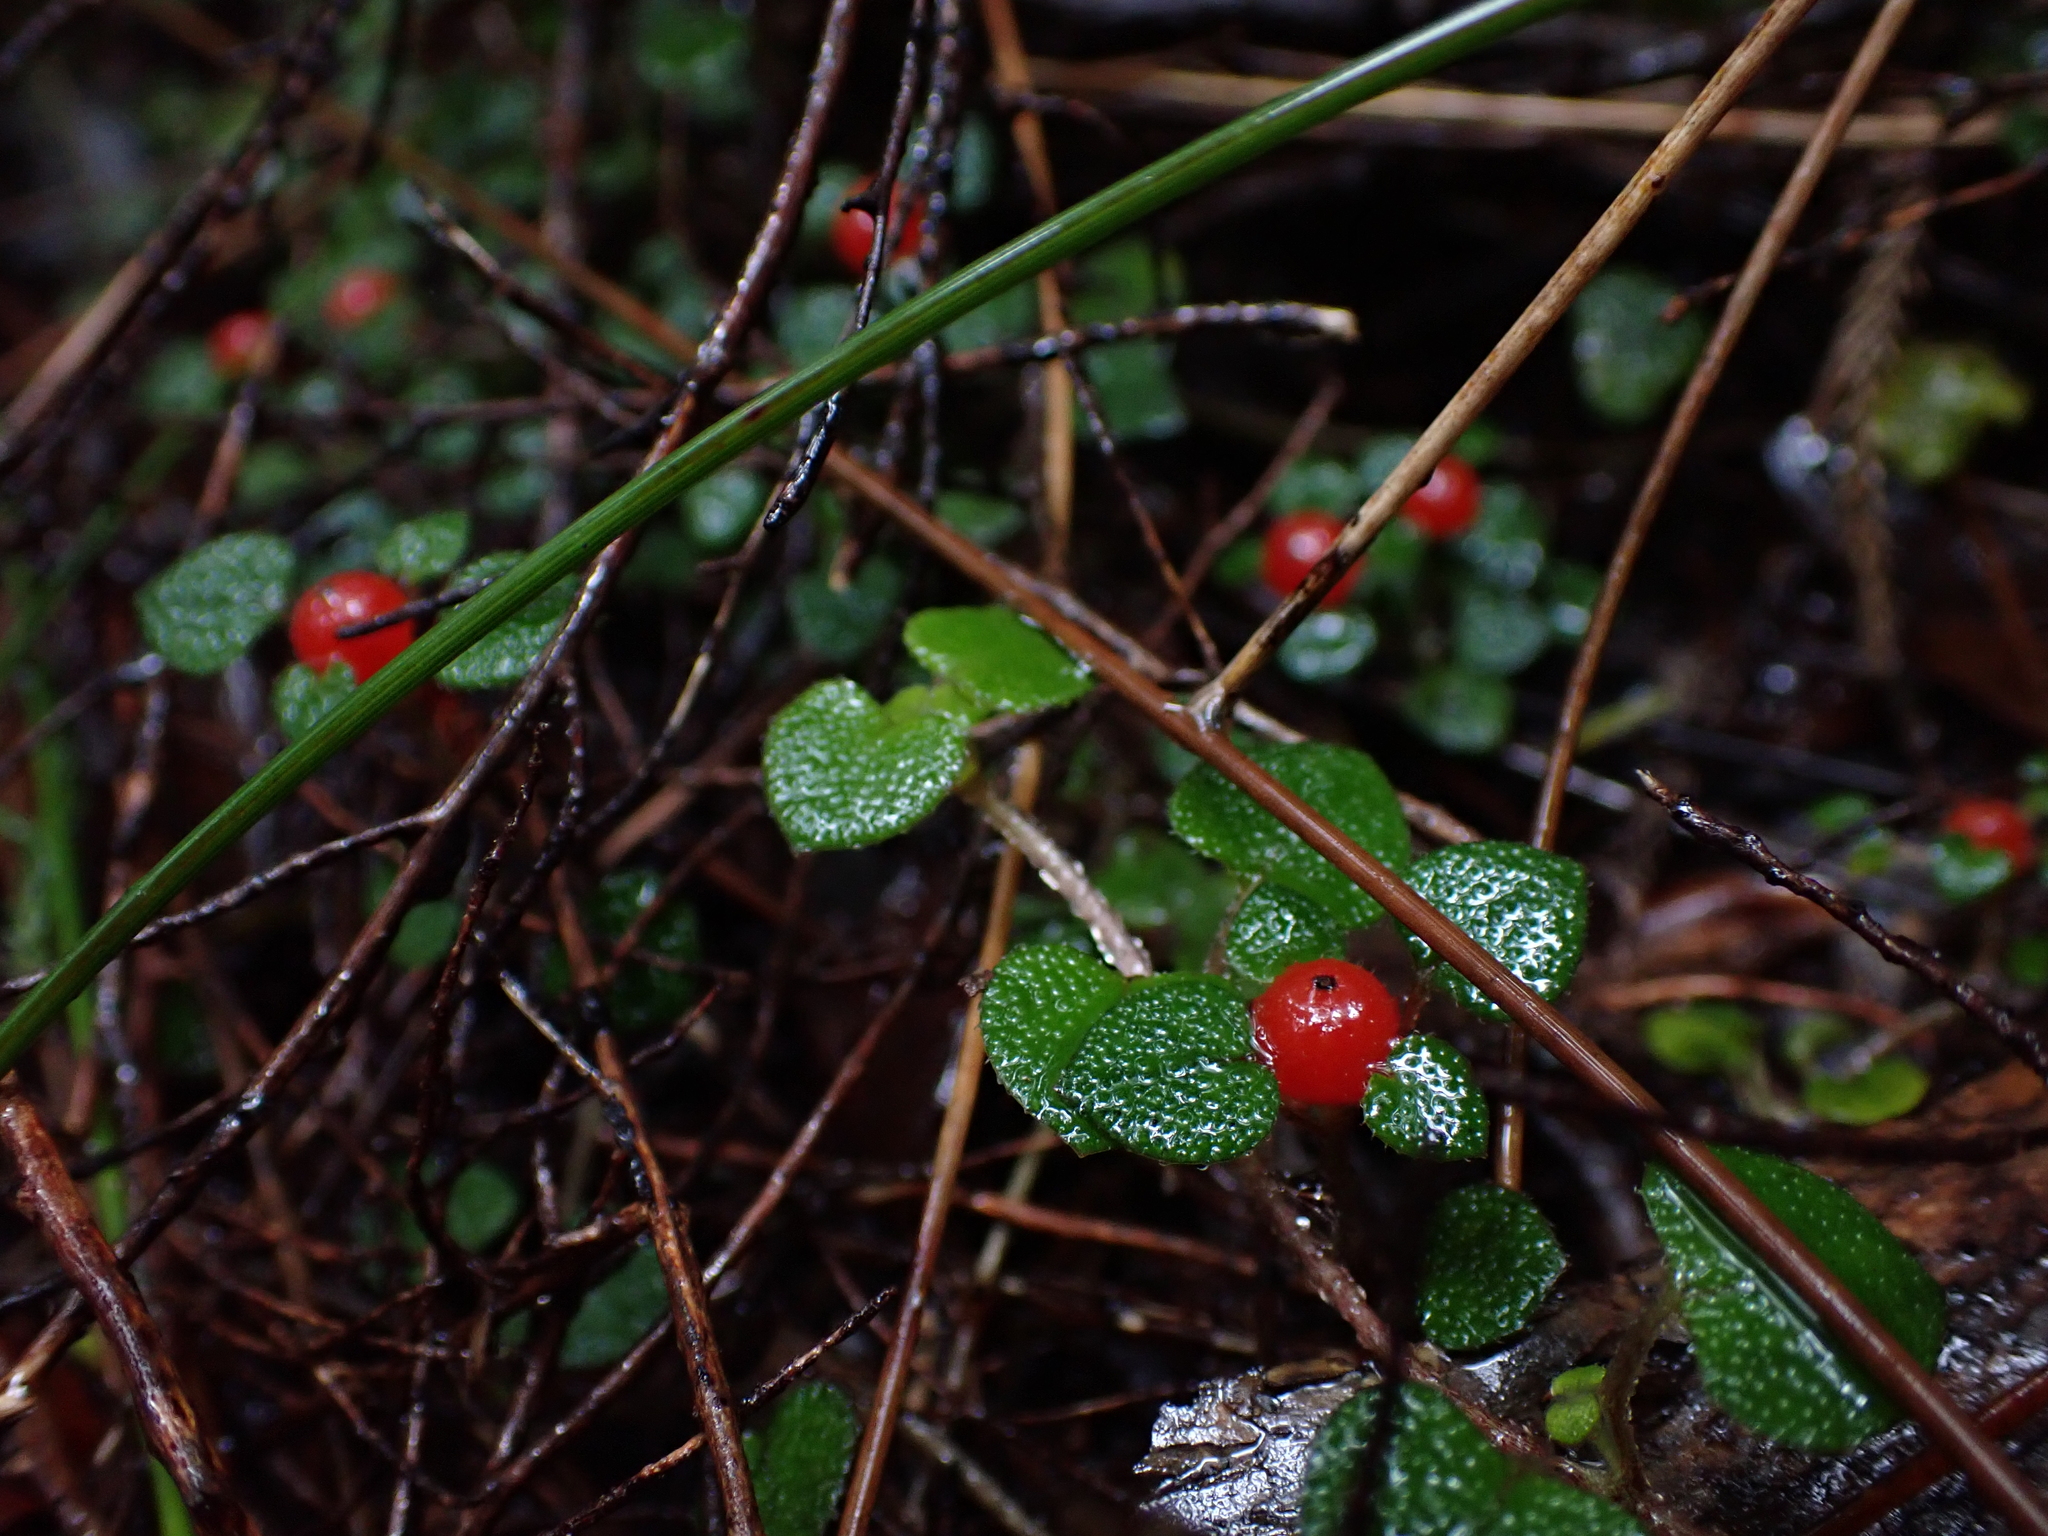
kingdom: Plantae
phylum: Tracheophyta
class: Magnoliopsida
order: Gentianales
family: Rubiaceae
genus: Nertera
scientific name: Nertera dichondrifolia
